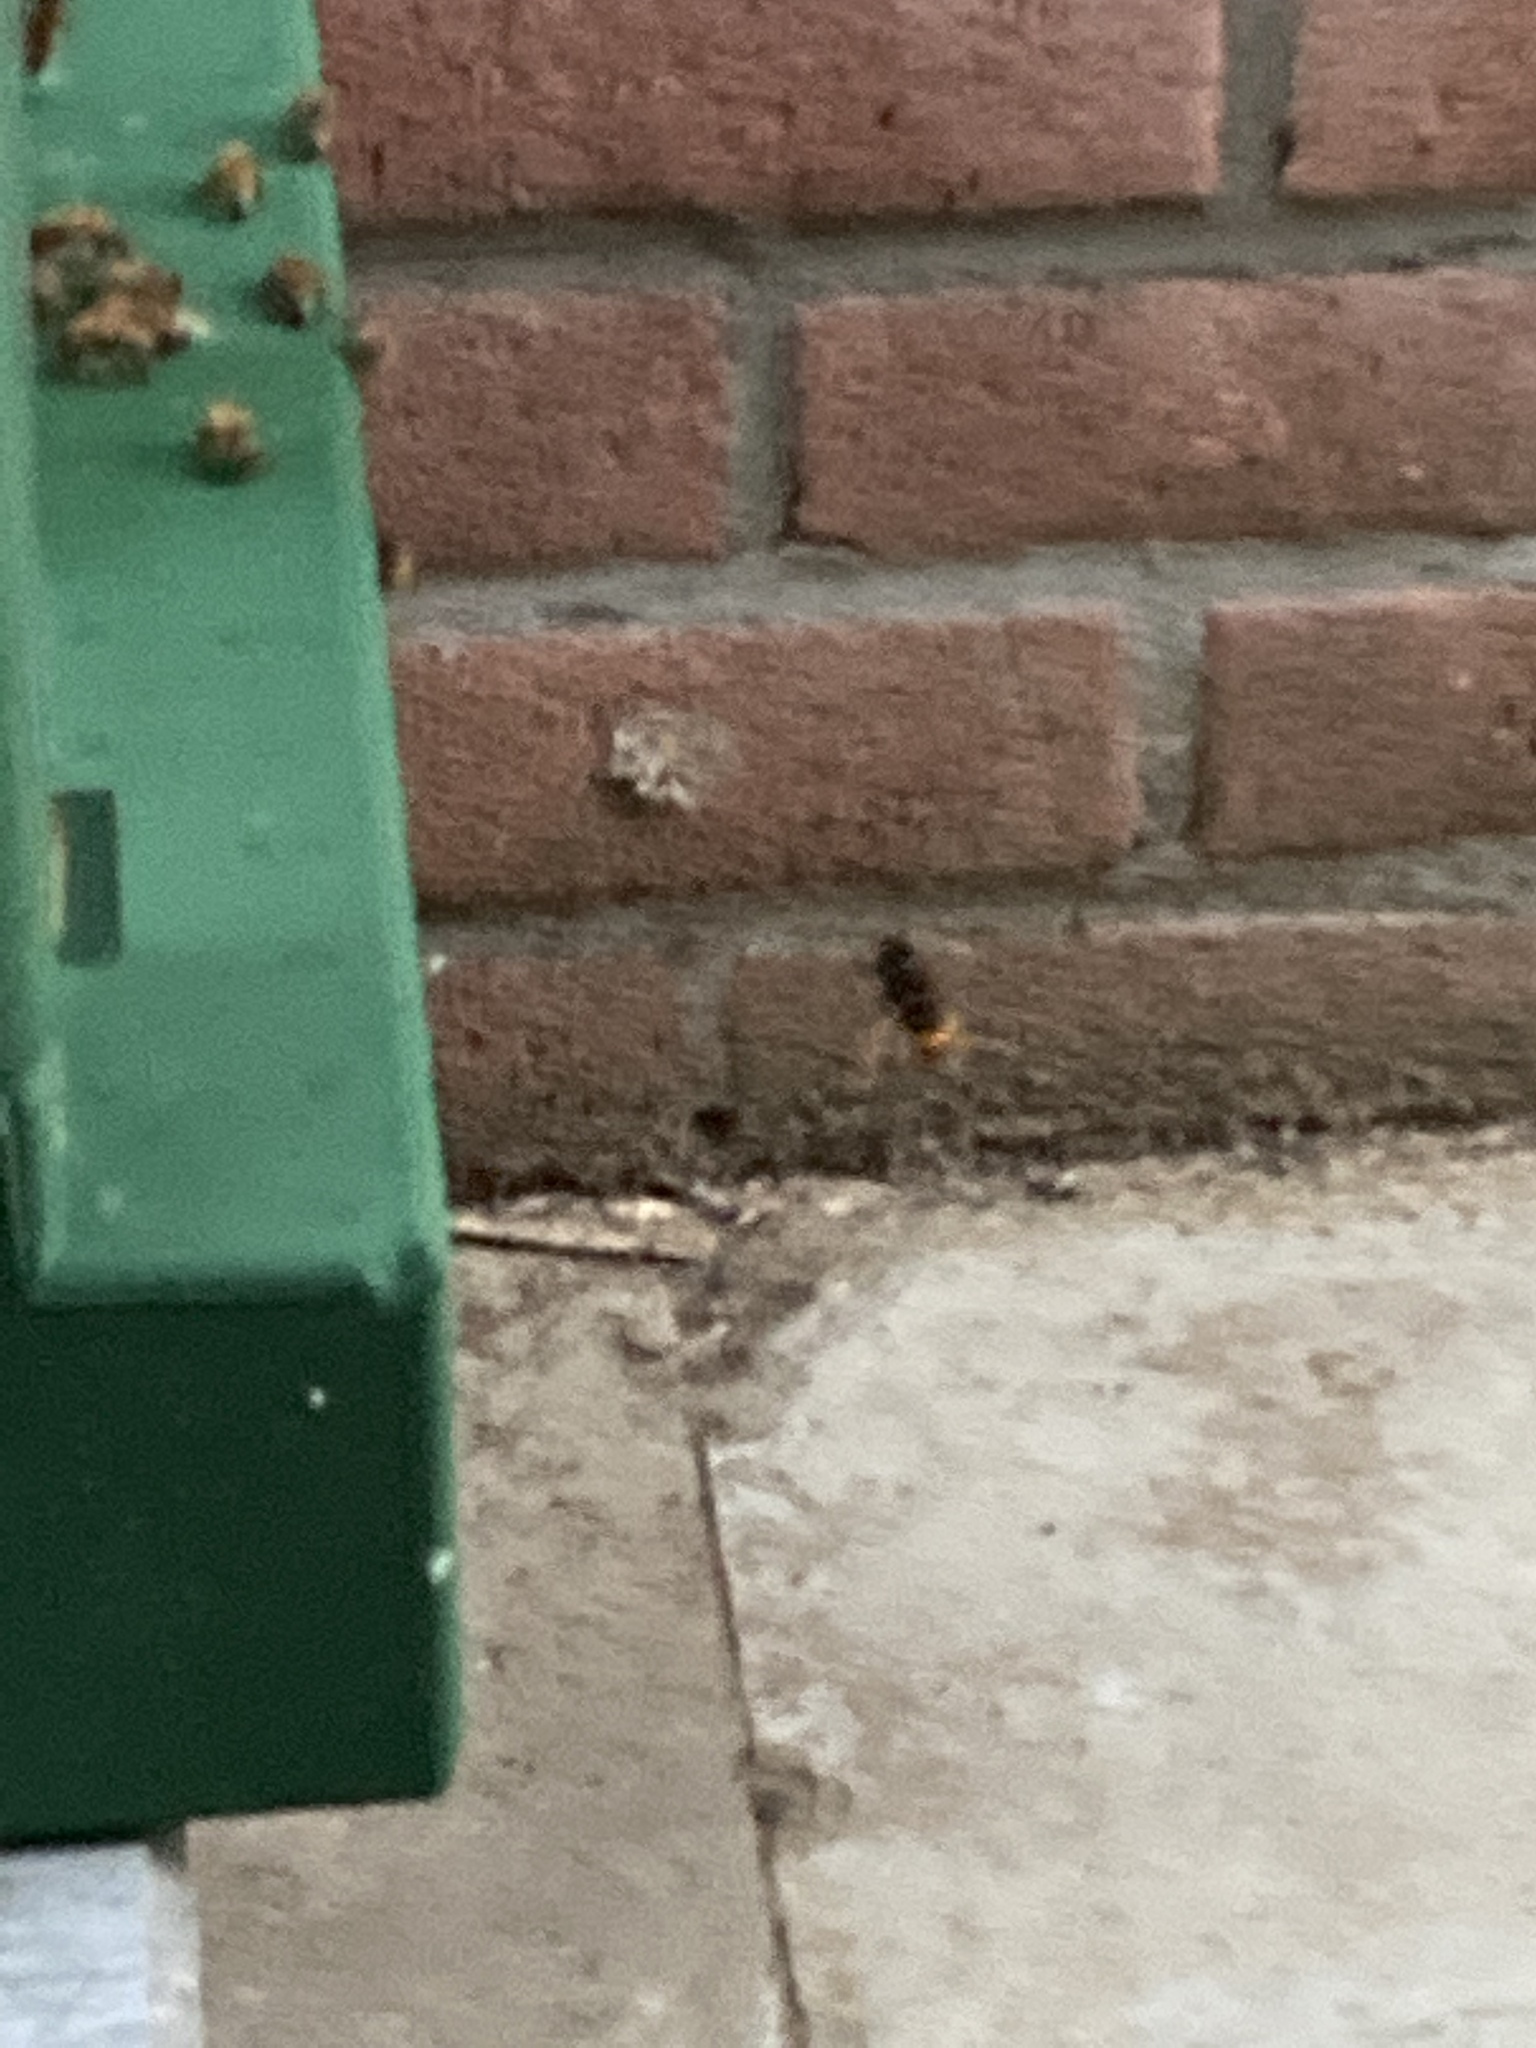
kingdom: Animalia
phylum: Arthropoda
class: Insecta
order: Hymenoptera
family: Vespidae
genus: Vespa
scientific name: Vespa velutina
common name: Asian hornet
